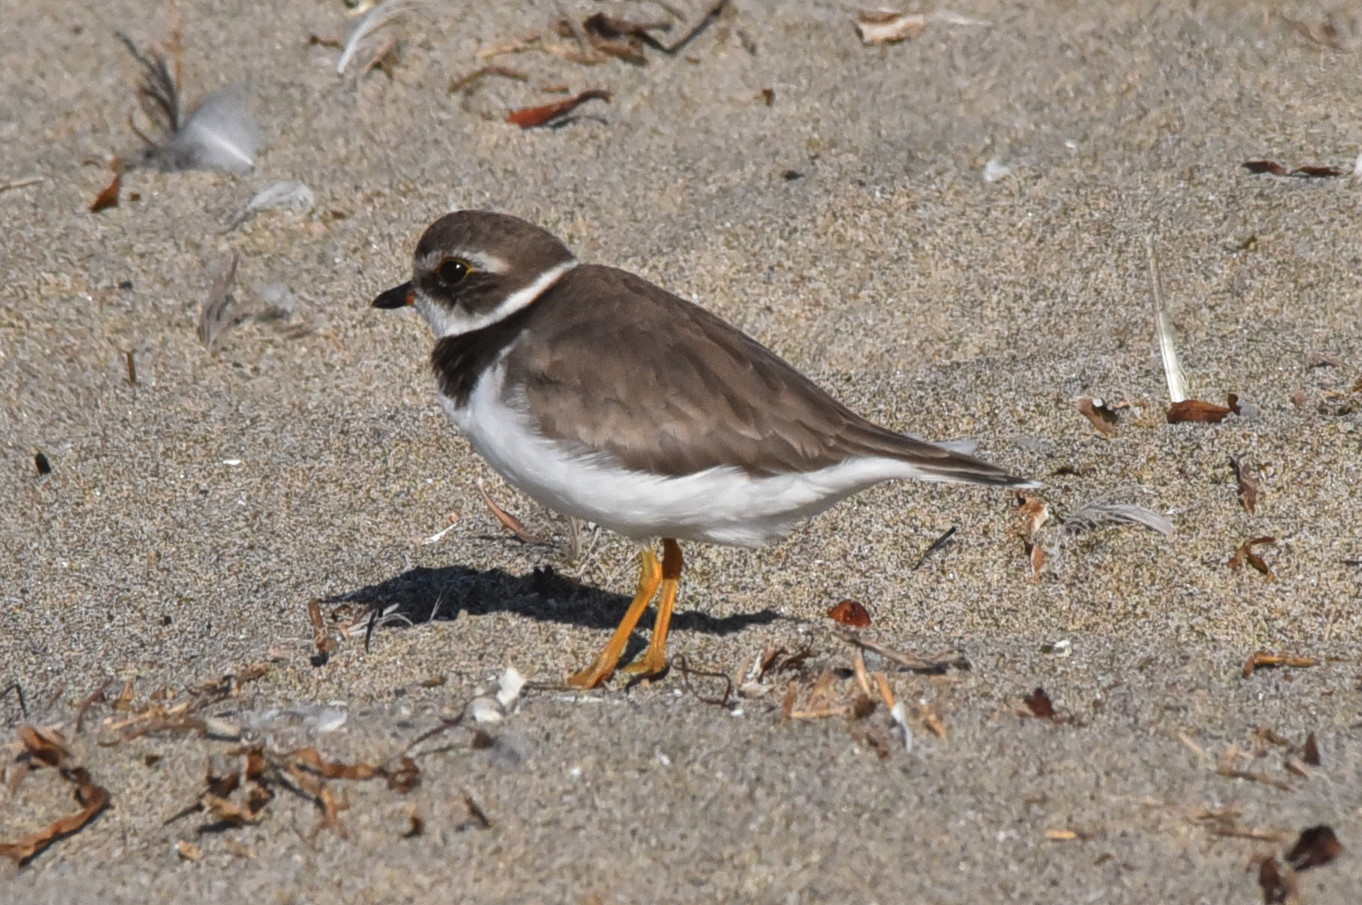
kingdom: Animalia
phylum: Chordata
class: Aves
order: Charadriiformes
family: Charadriidae
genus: Charadrius
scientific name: Charadrius semipalmatus
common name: Semipalmated plover
